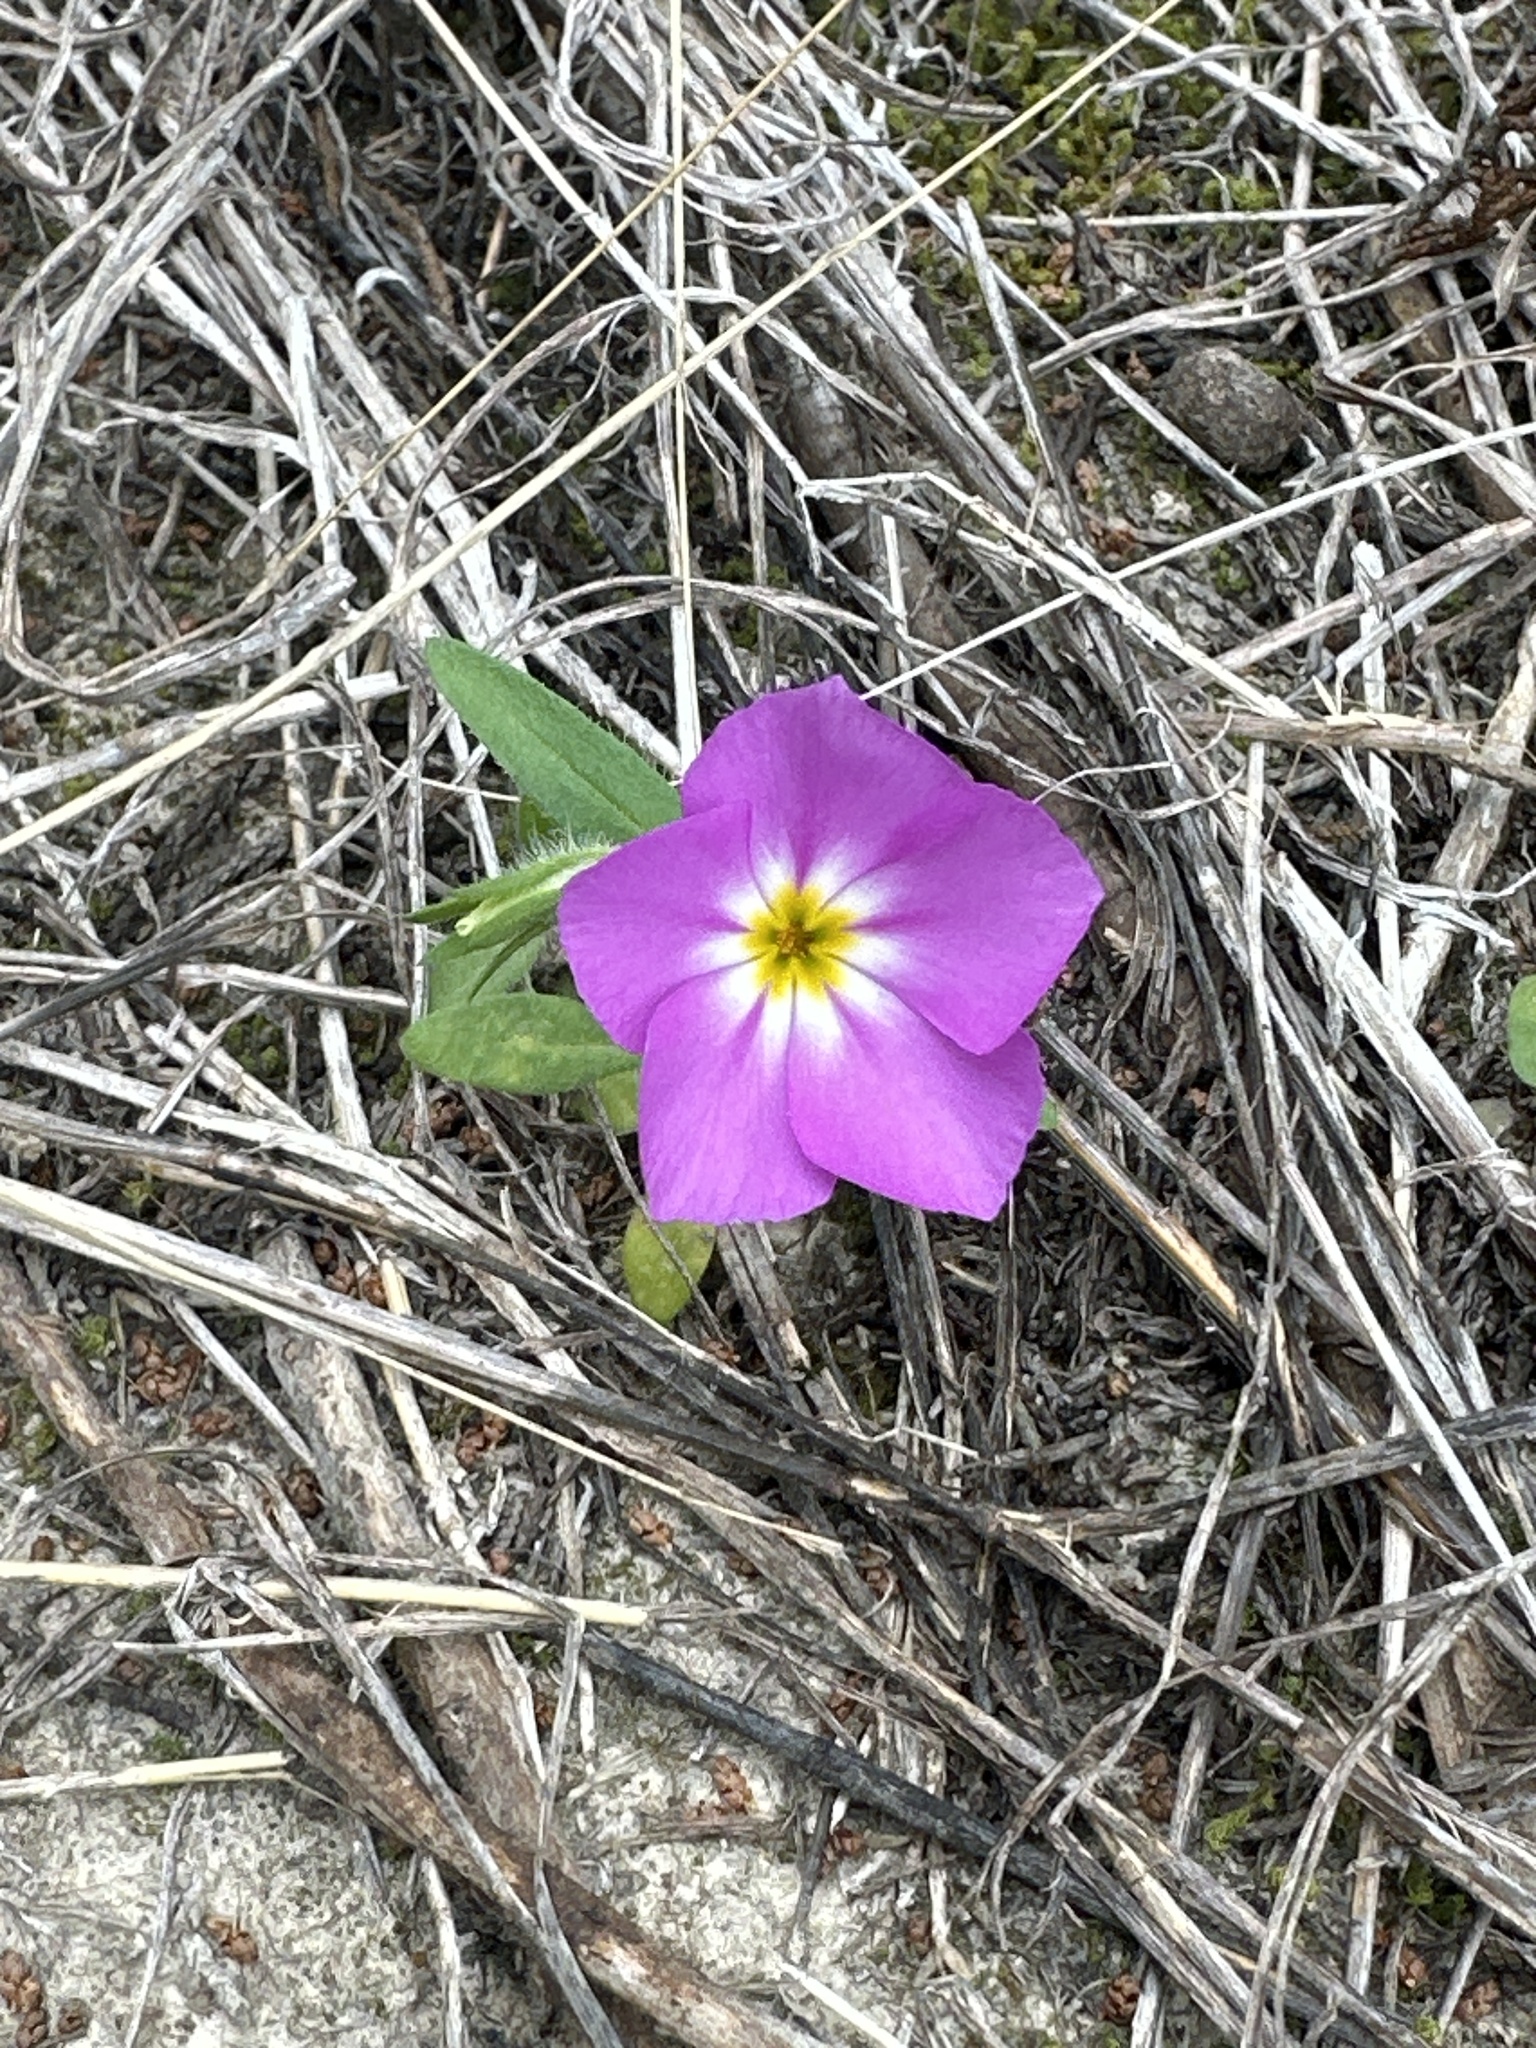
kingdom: Plantae
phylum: Tracheophyta
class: Magnoliopsida
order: Ericales
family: Polemoniaceae
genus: Phlox
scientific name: Phlox roemeriana
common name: Roemer's phlox
